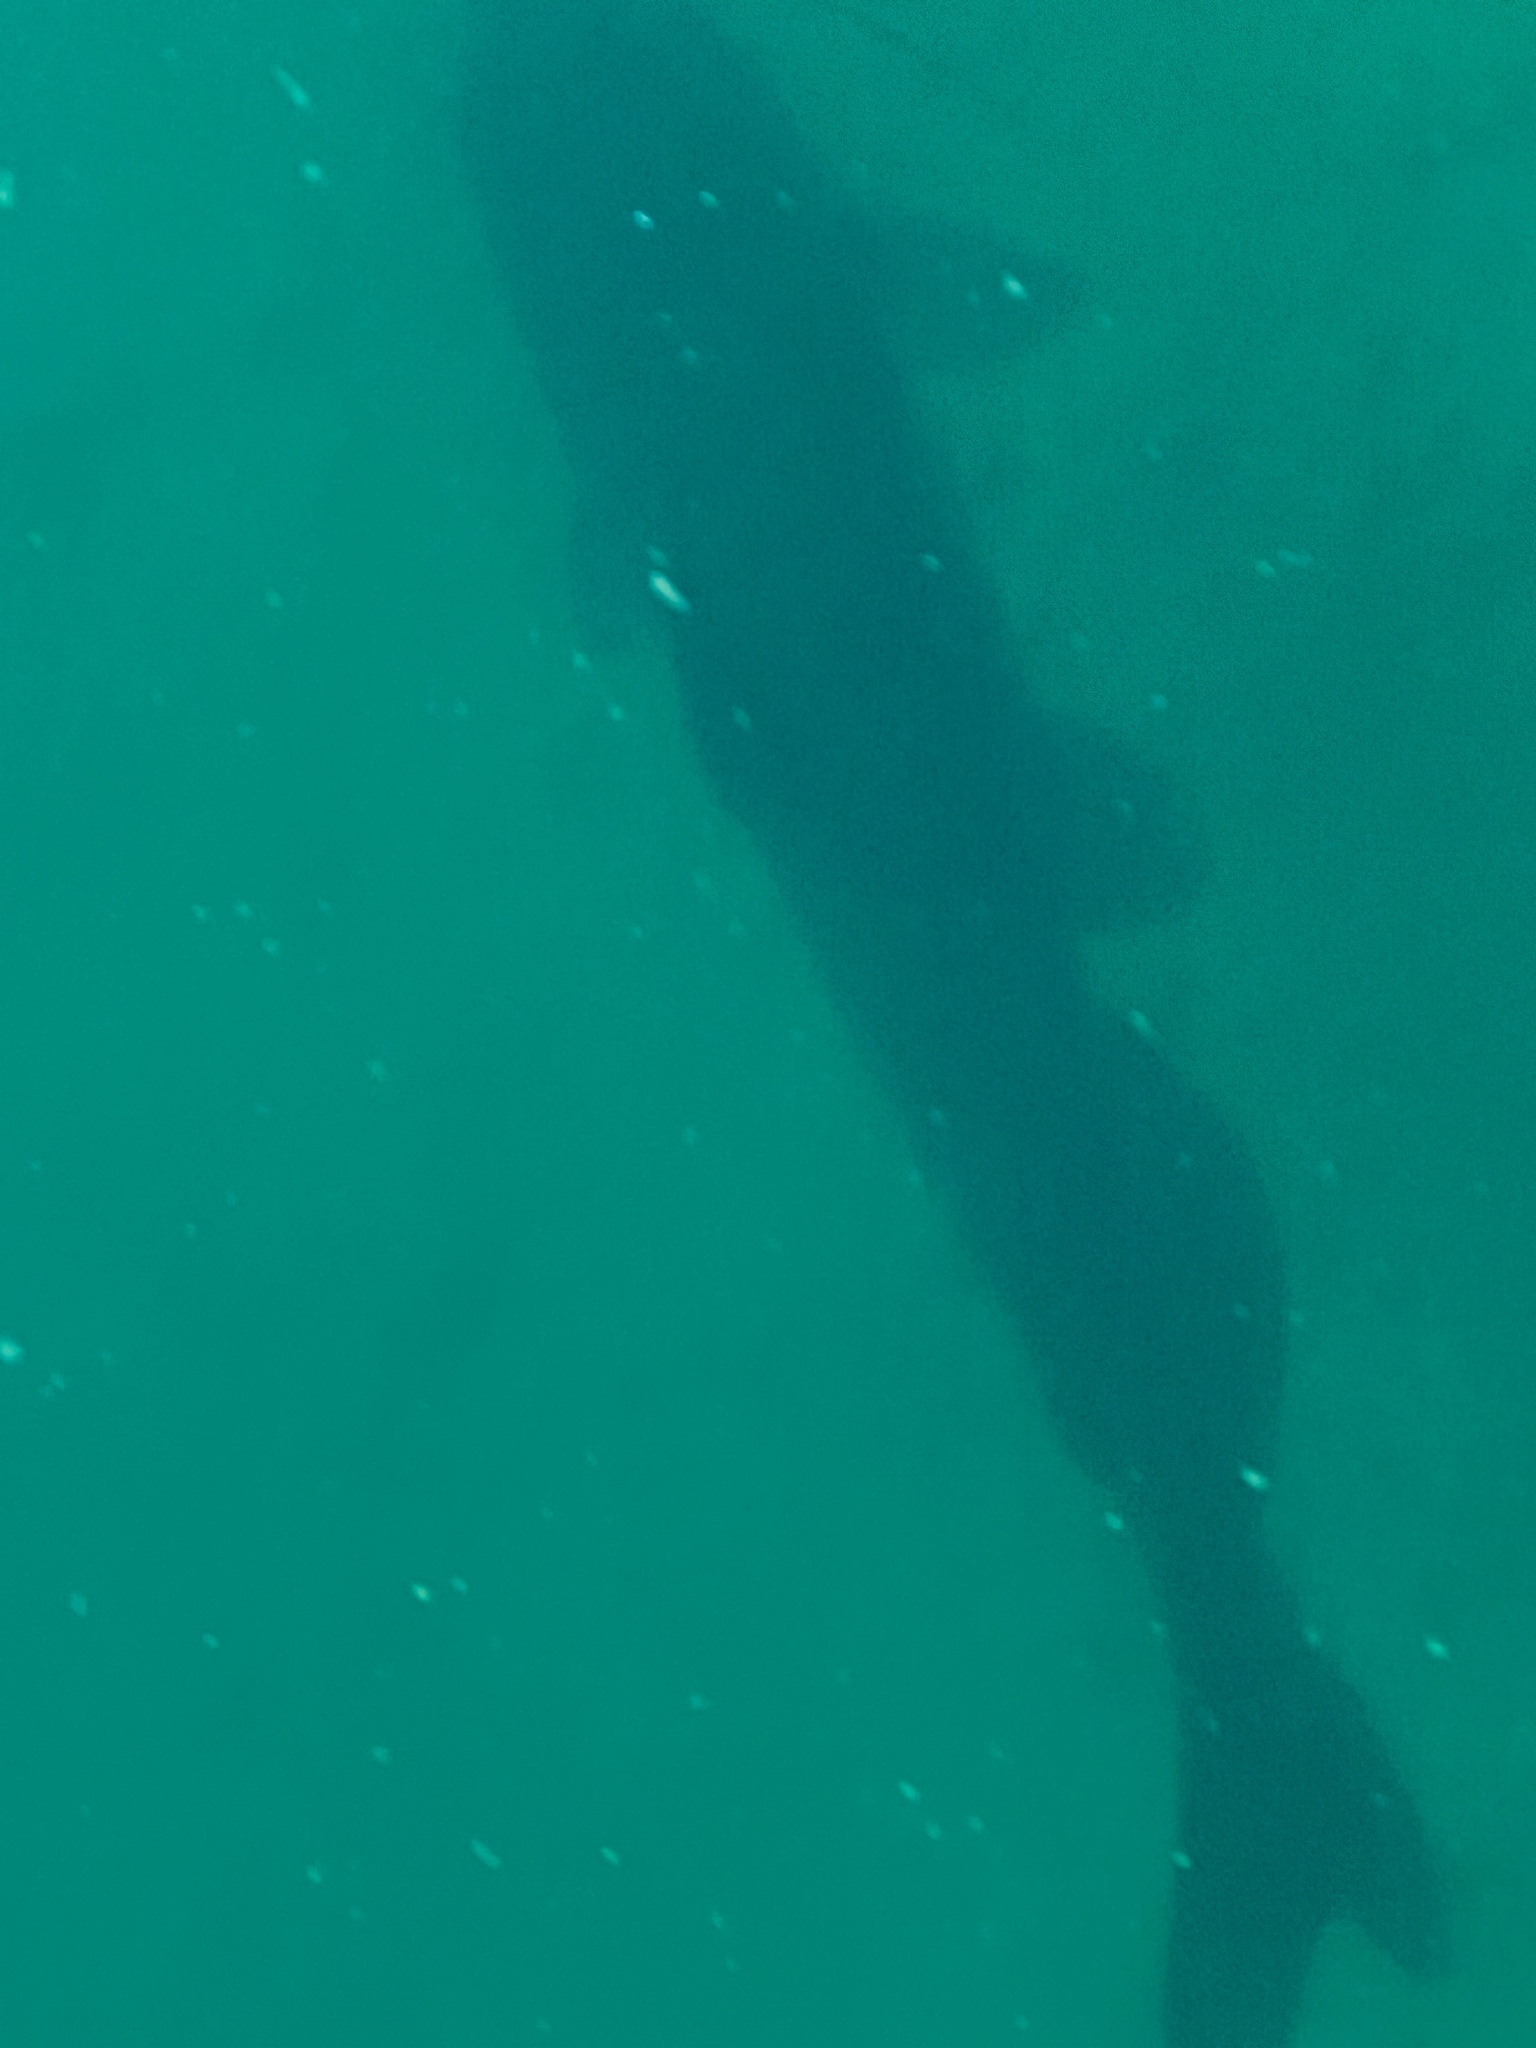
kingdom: Animalia
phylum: Chordata
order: Siluriformes
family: Ictaluridae
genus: Ictalurus
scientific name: Ictalurus punctatus
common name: Channel catfish
